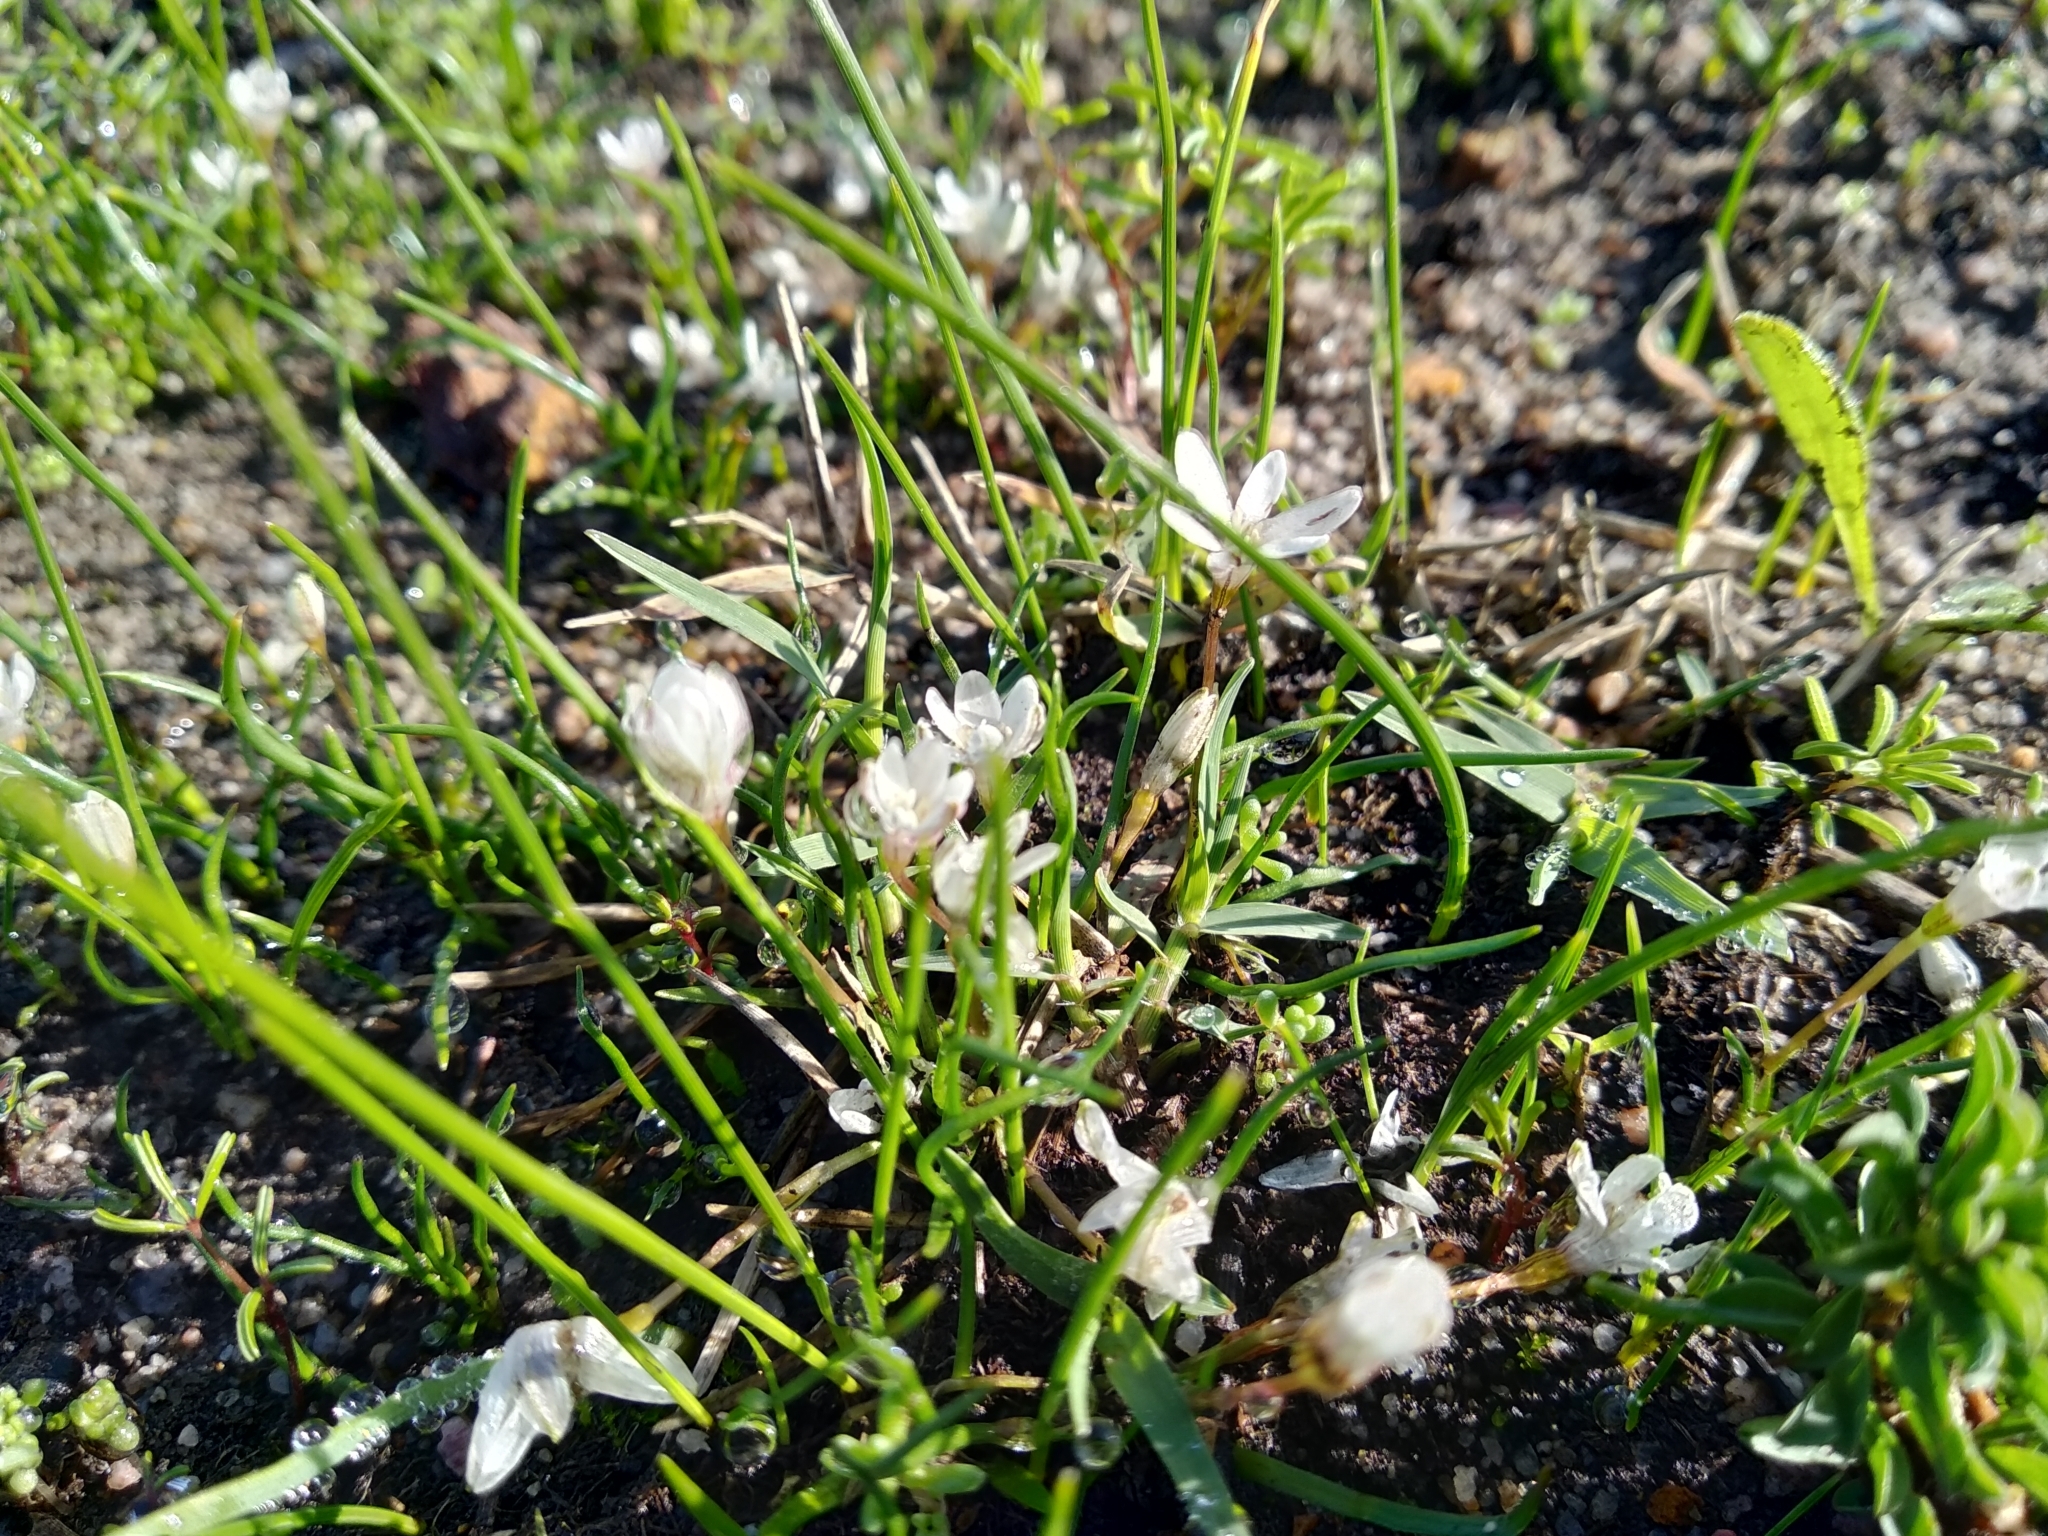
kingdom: Plantae
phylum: Tracheophyta
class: Liliopsida
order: Asparagales
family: Hypoxidaceae
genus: Pauridia
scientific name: Pauridia minuta
